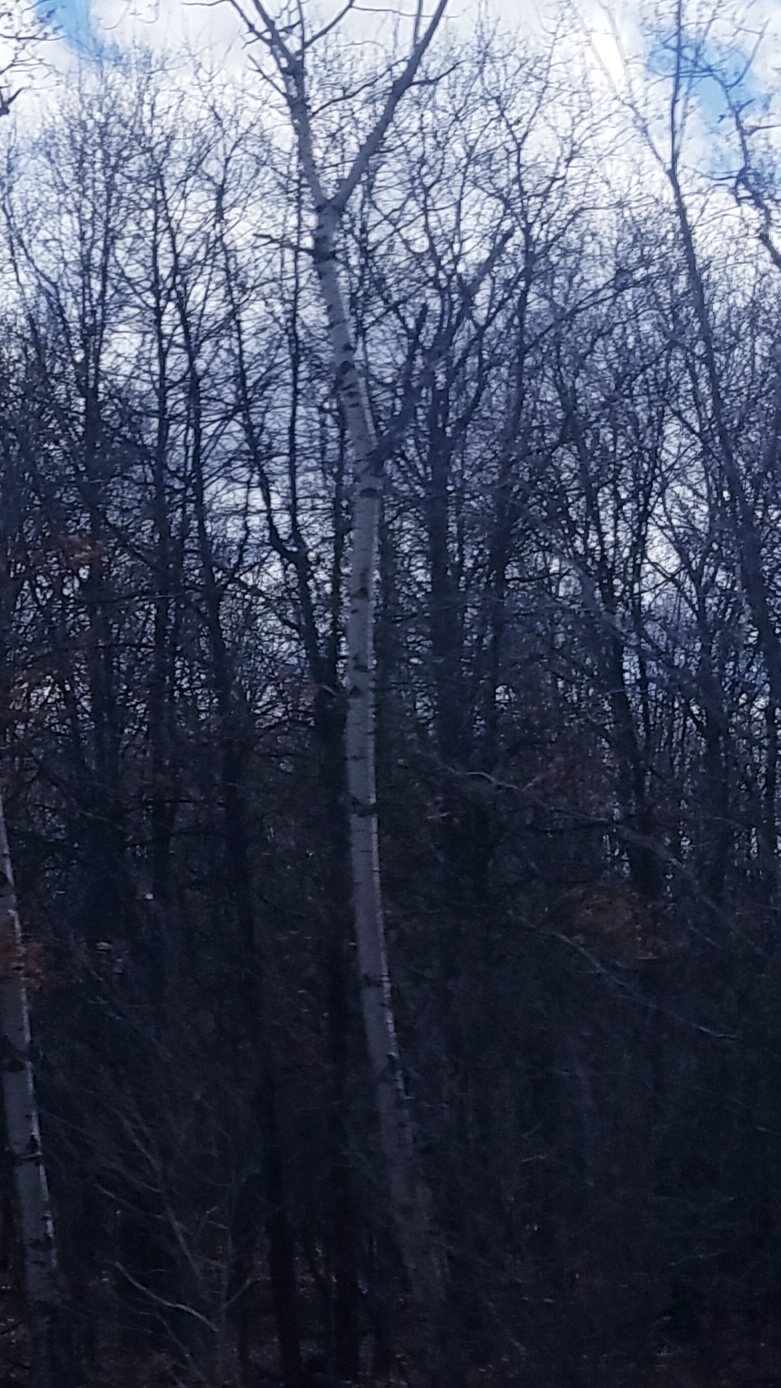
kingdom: Plantae
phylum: Tracheophyta
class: Magnoliopsida
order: Malpighiales
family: Salicaceae
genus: Populus
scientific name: Populus tremuloides
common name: Quaking aspen
